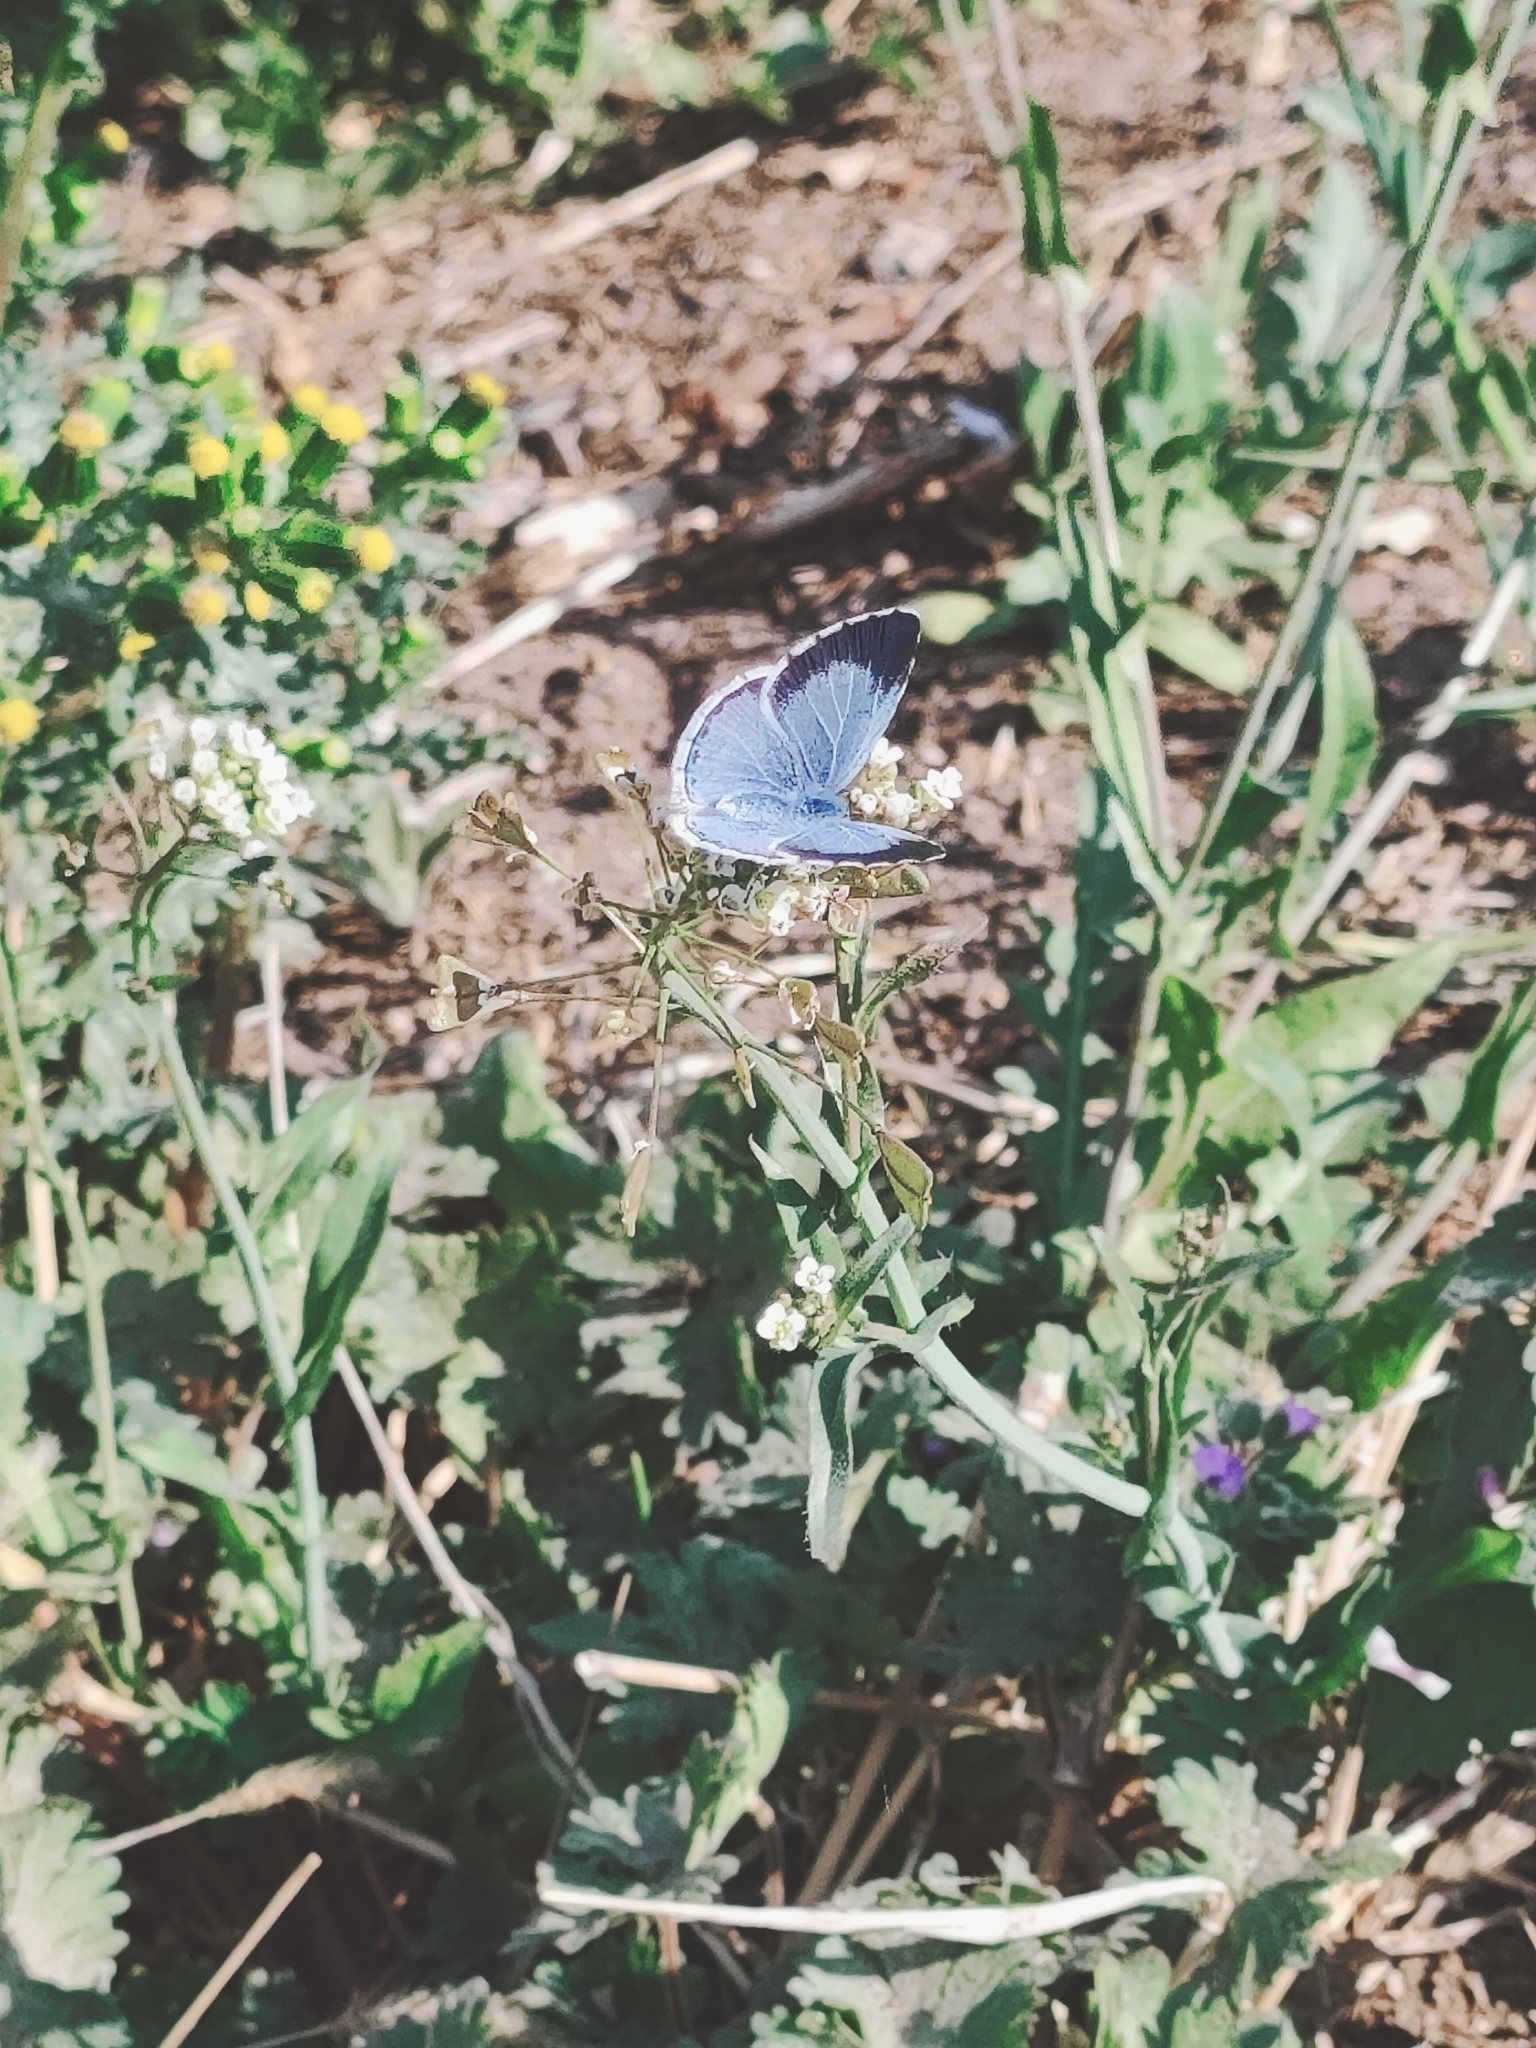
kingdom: Animalia
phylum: Arthropoda
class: Insecta
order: Lepidoptera
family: Lycaenidae
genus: Celastrina
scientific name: Celastrina argiolus
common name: Holly blue
